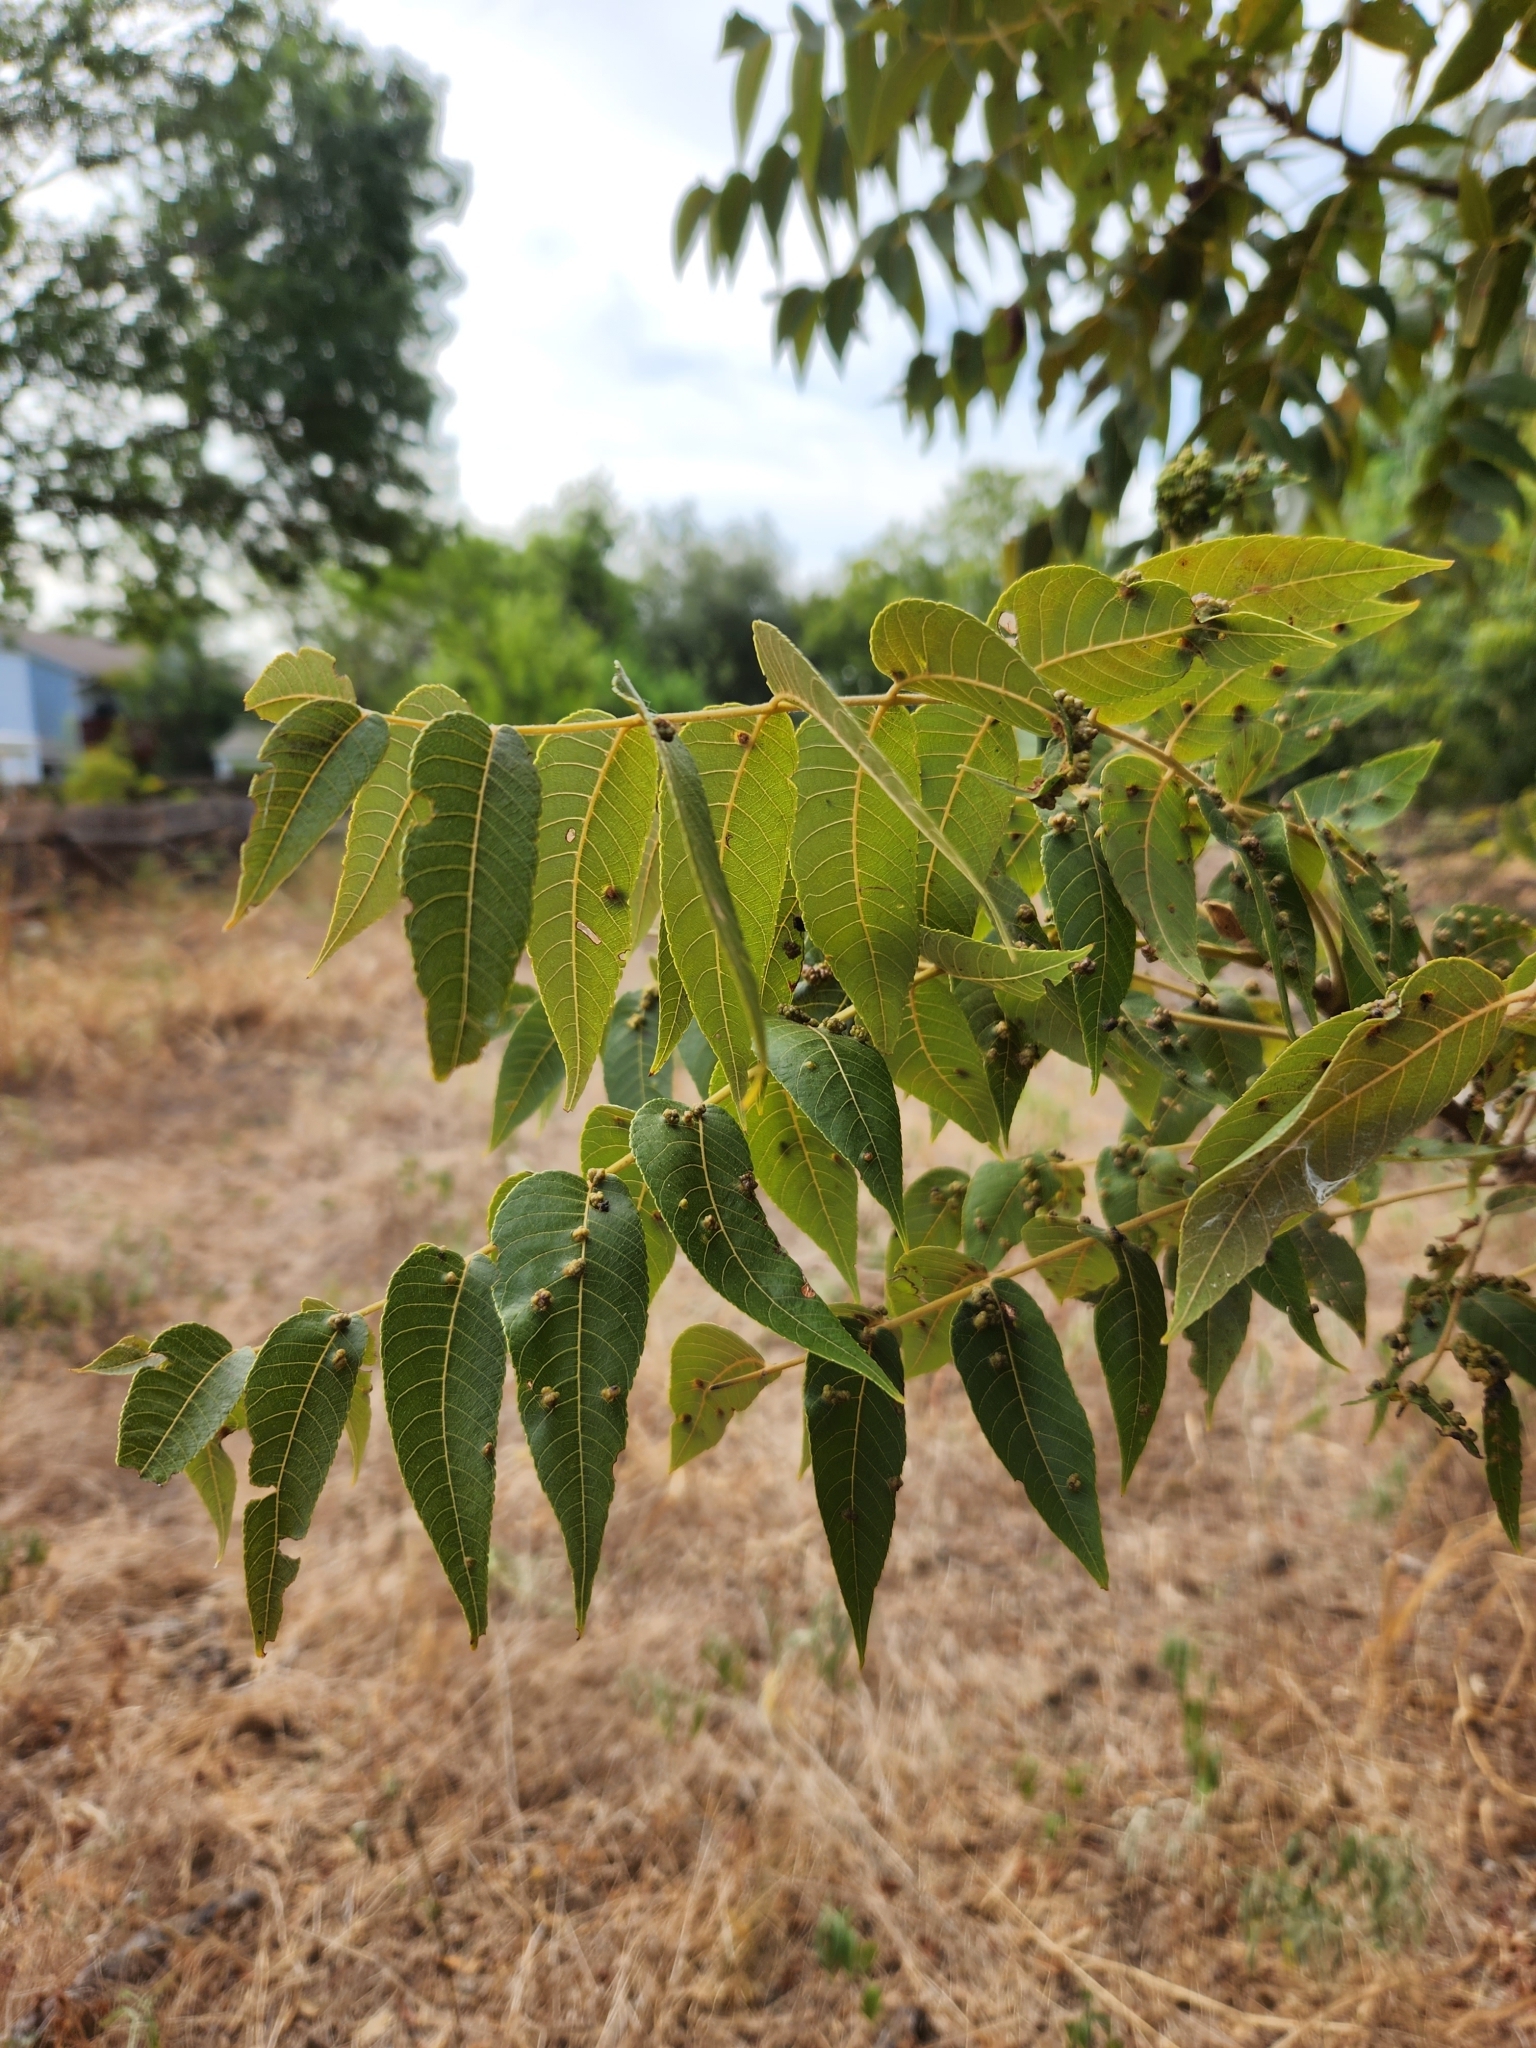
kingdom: Plantae
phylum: Tracheophyta
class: Magnoliopsida
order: Fagales
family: Juglandaceae
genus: Juglans
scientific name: Juglans nigra
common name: Black walnut
